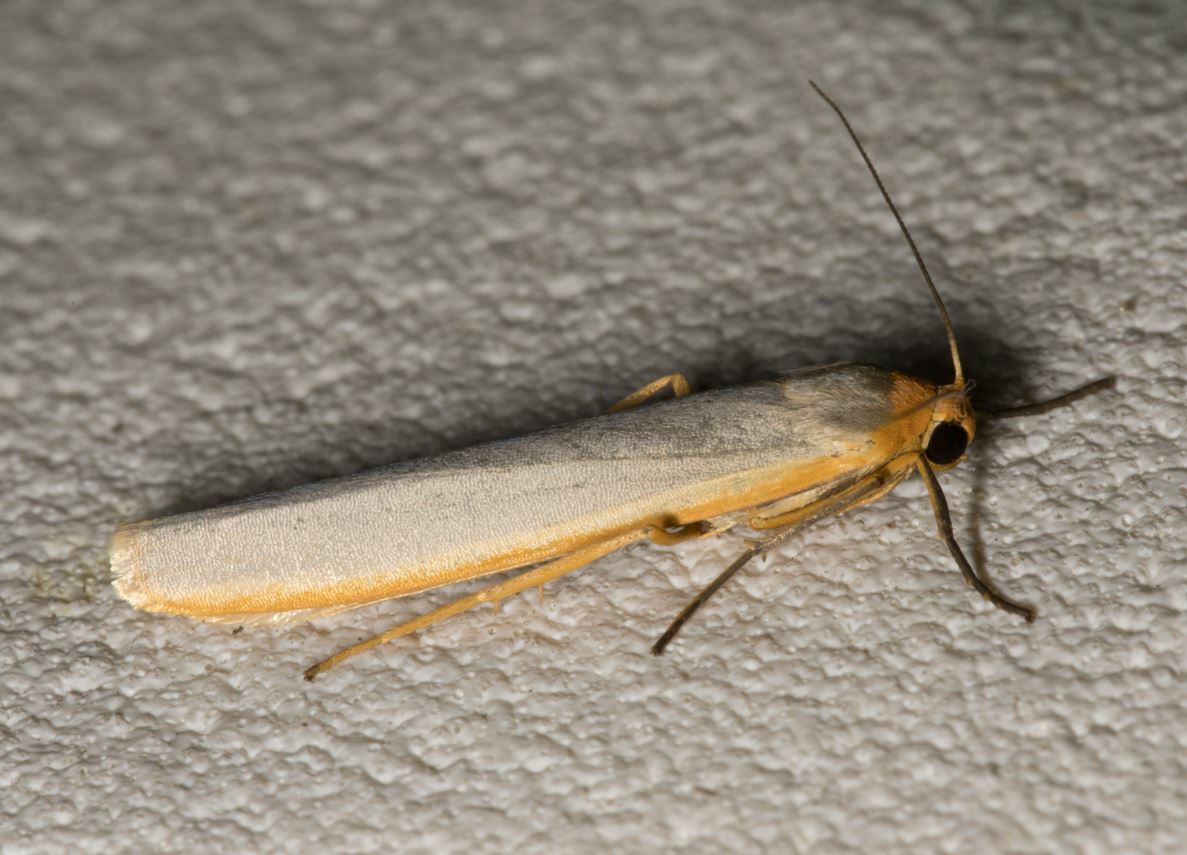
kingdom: Animalia
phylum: Arthropoda
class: Insecta
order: Lepidoptera
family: Erebidae
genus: Manulea
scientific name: Manulea complana
